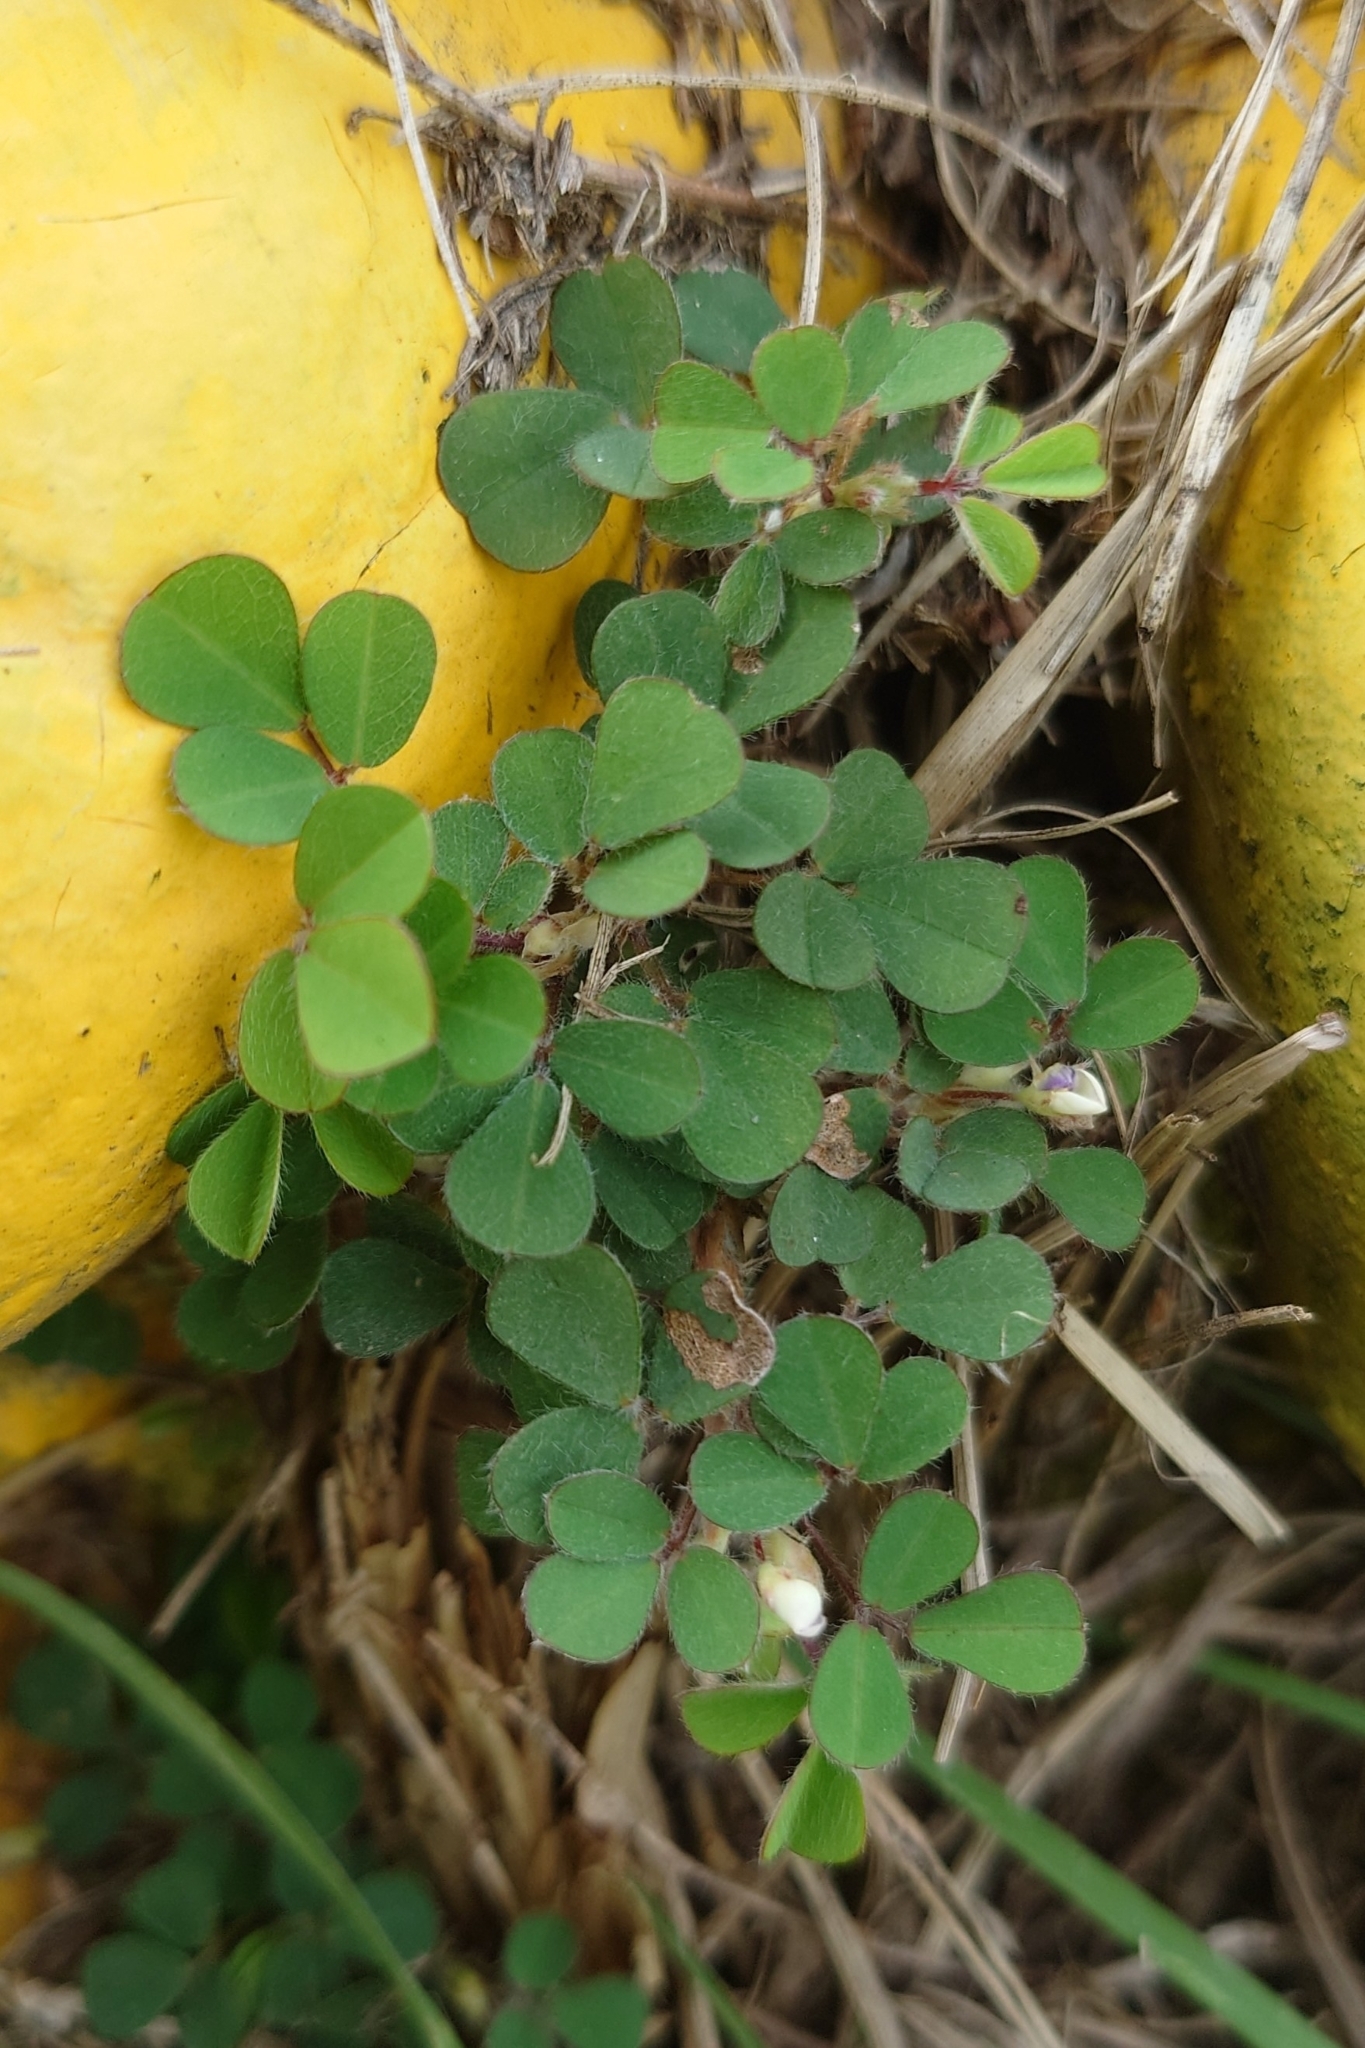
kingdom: Plantae
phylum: Tracheophyta
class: Magnoliopsida
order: Fabales
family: Fabaceae
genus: Grona
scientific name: Grona triflora
